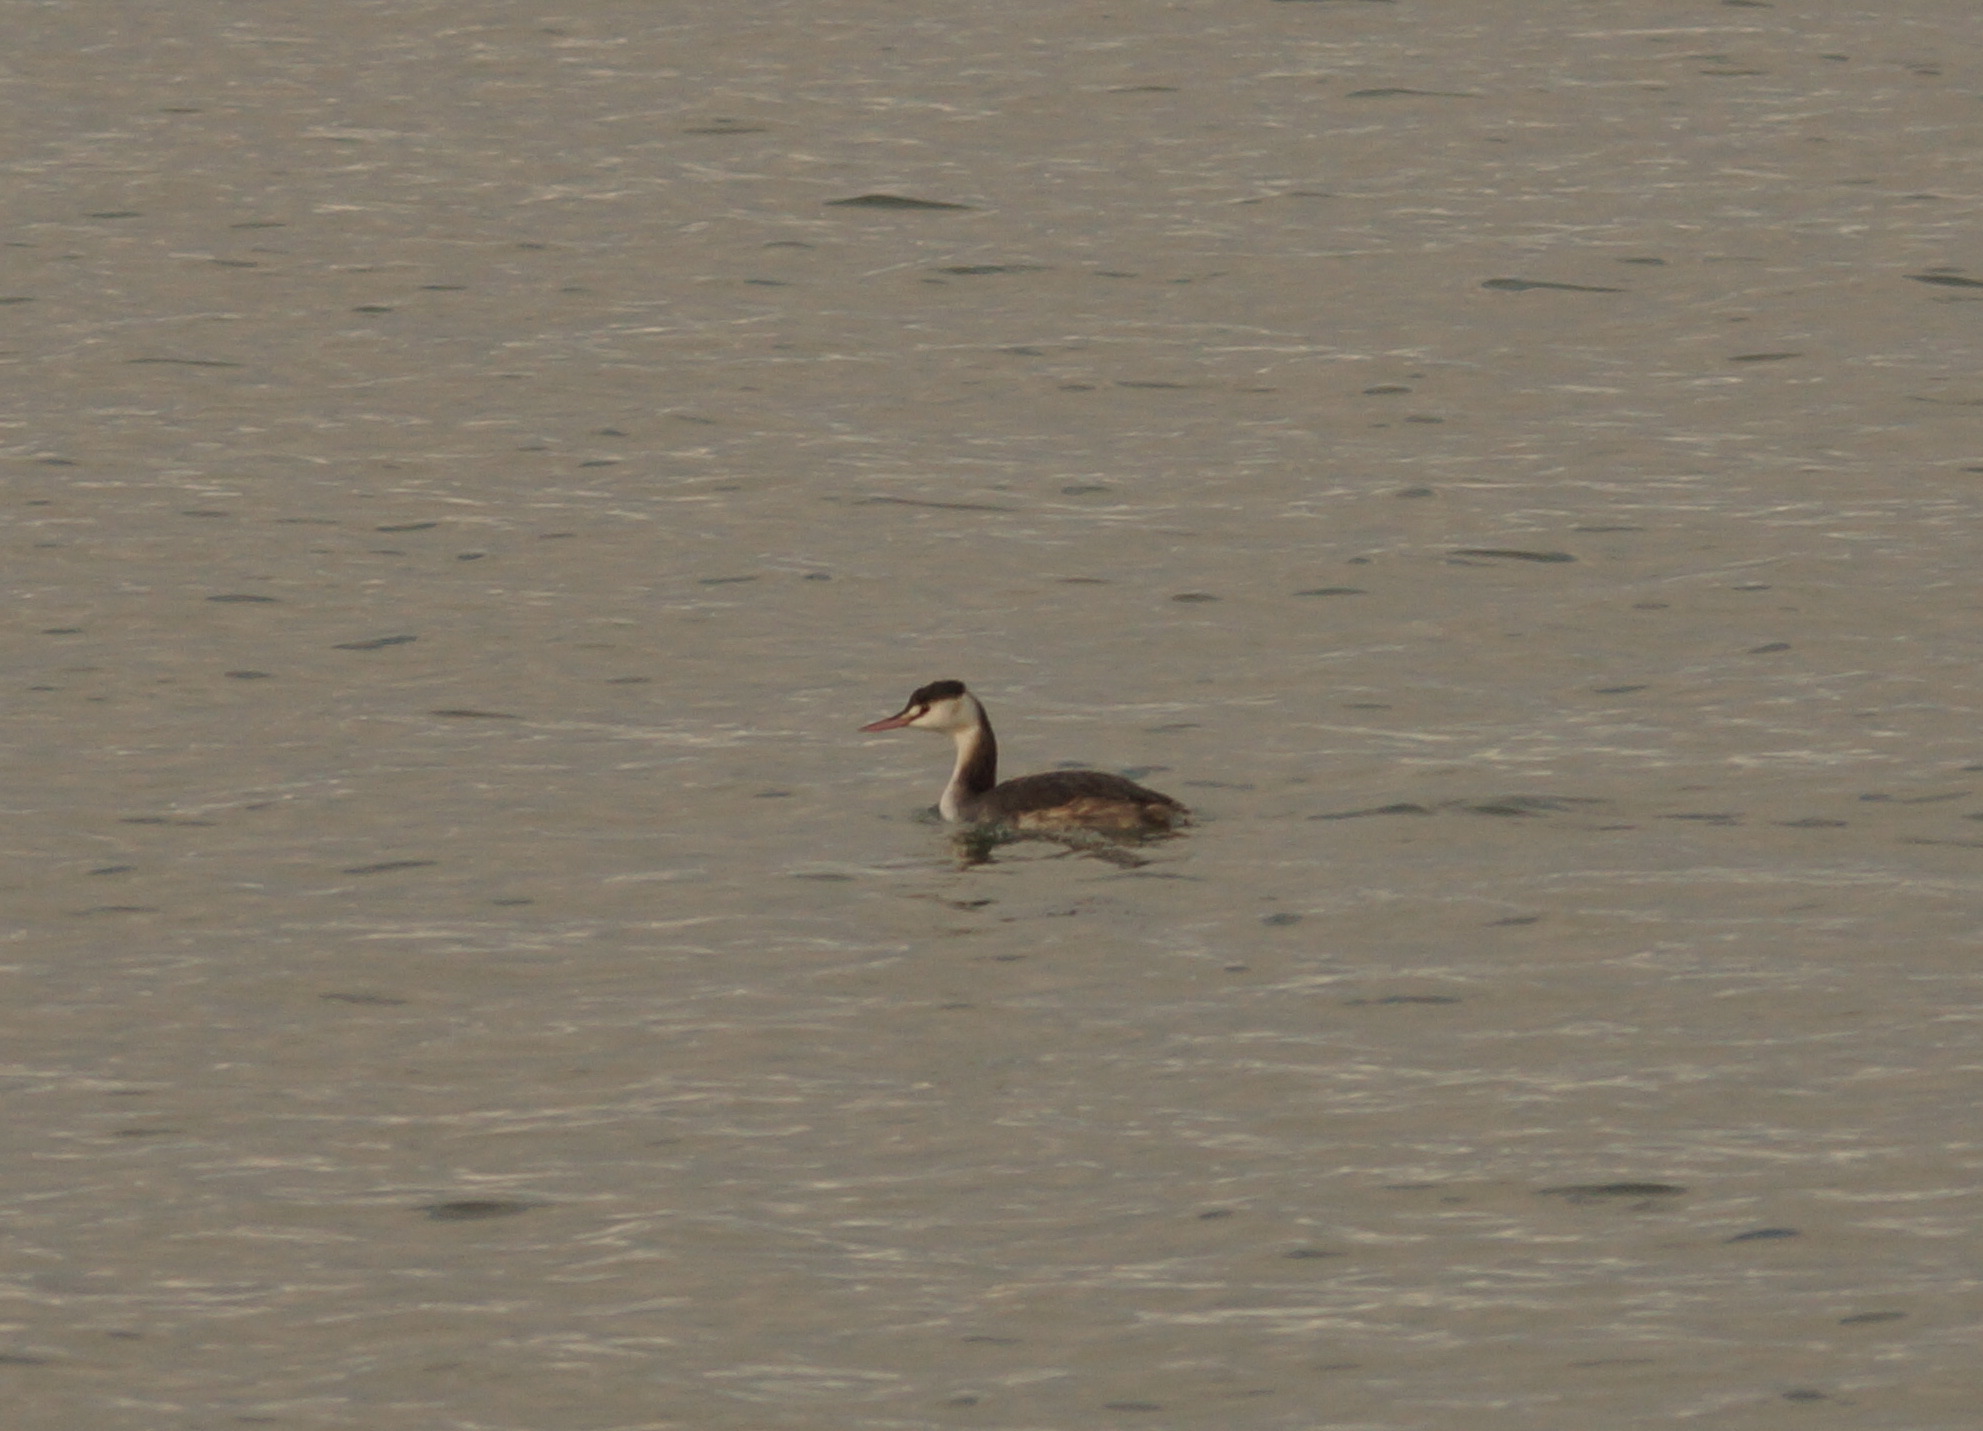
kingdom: Animalia
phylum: Chordata
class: Aves
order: Podicipediformes
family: Podicipedidae
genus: Podiceps
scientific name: Podiceps cristatus
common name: Great crested grebe
